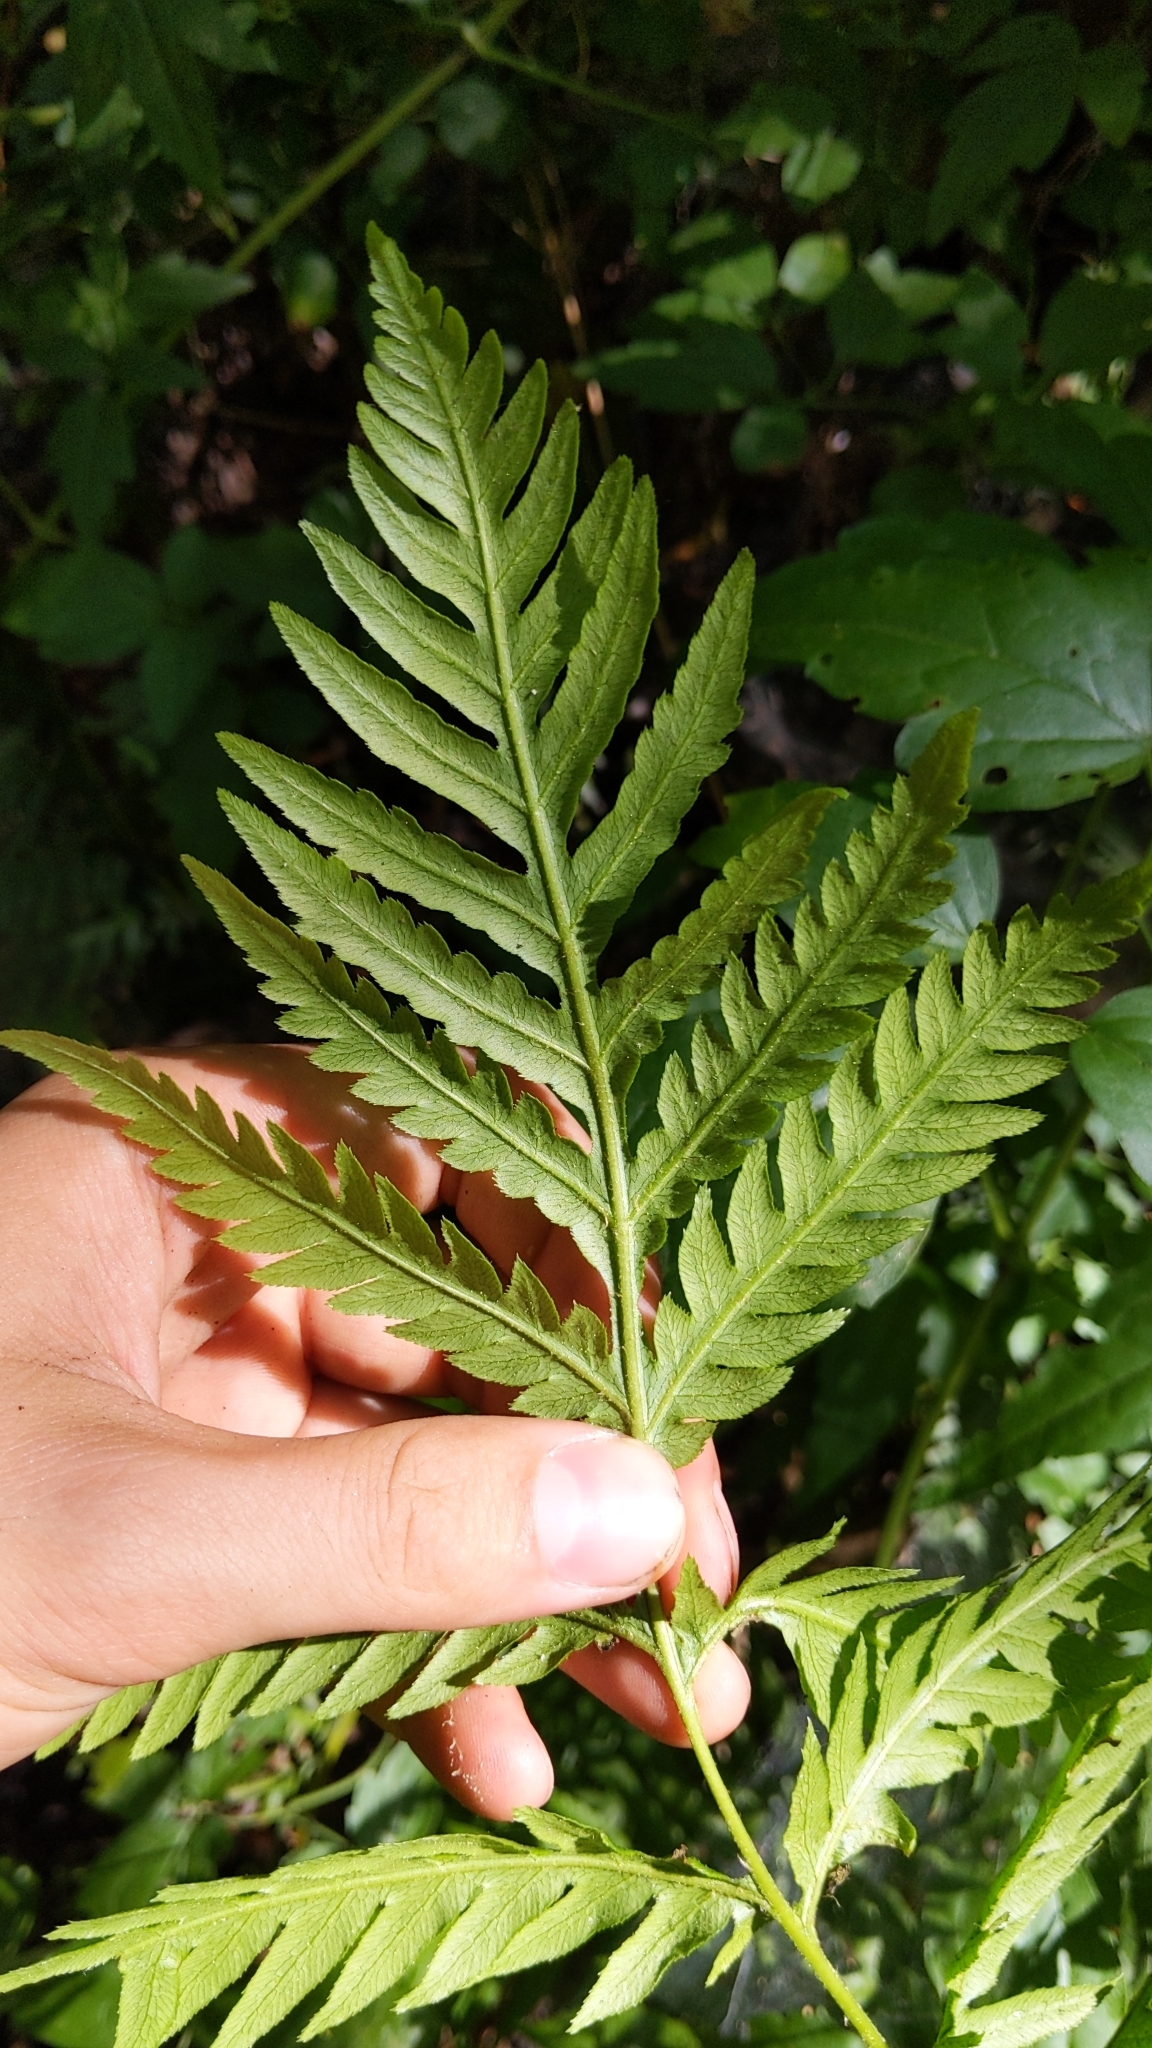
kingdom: Plantae
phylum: Tracheophyta
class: Polypodiopsida
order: Polypodiales
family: Blechnaceae
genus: Woodwardia
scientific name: Woodwardia fimbriata
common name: Giant chain fern
